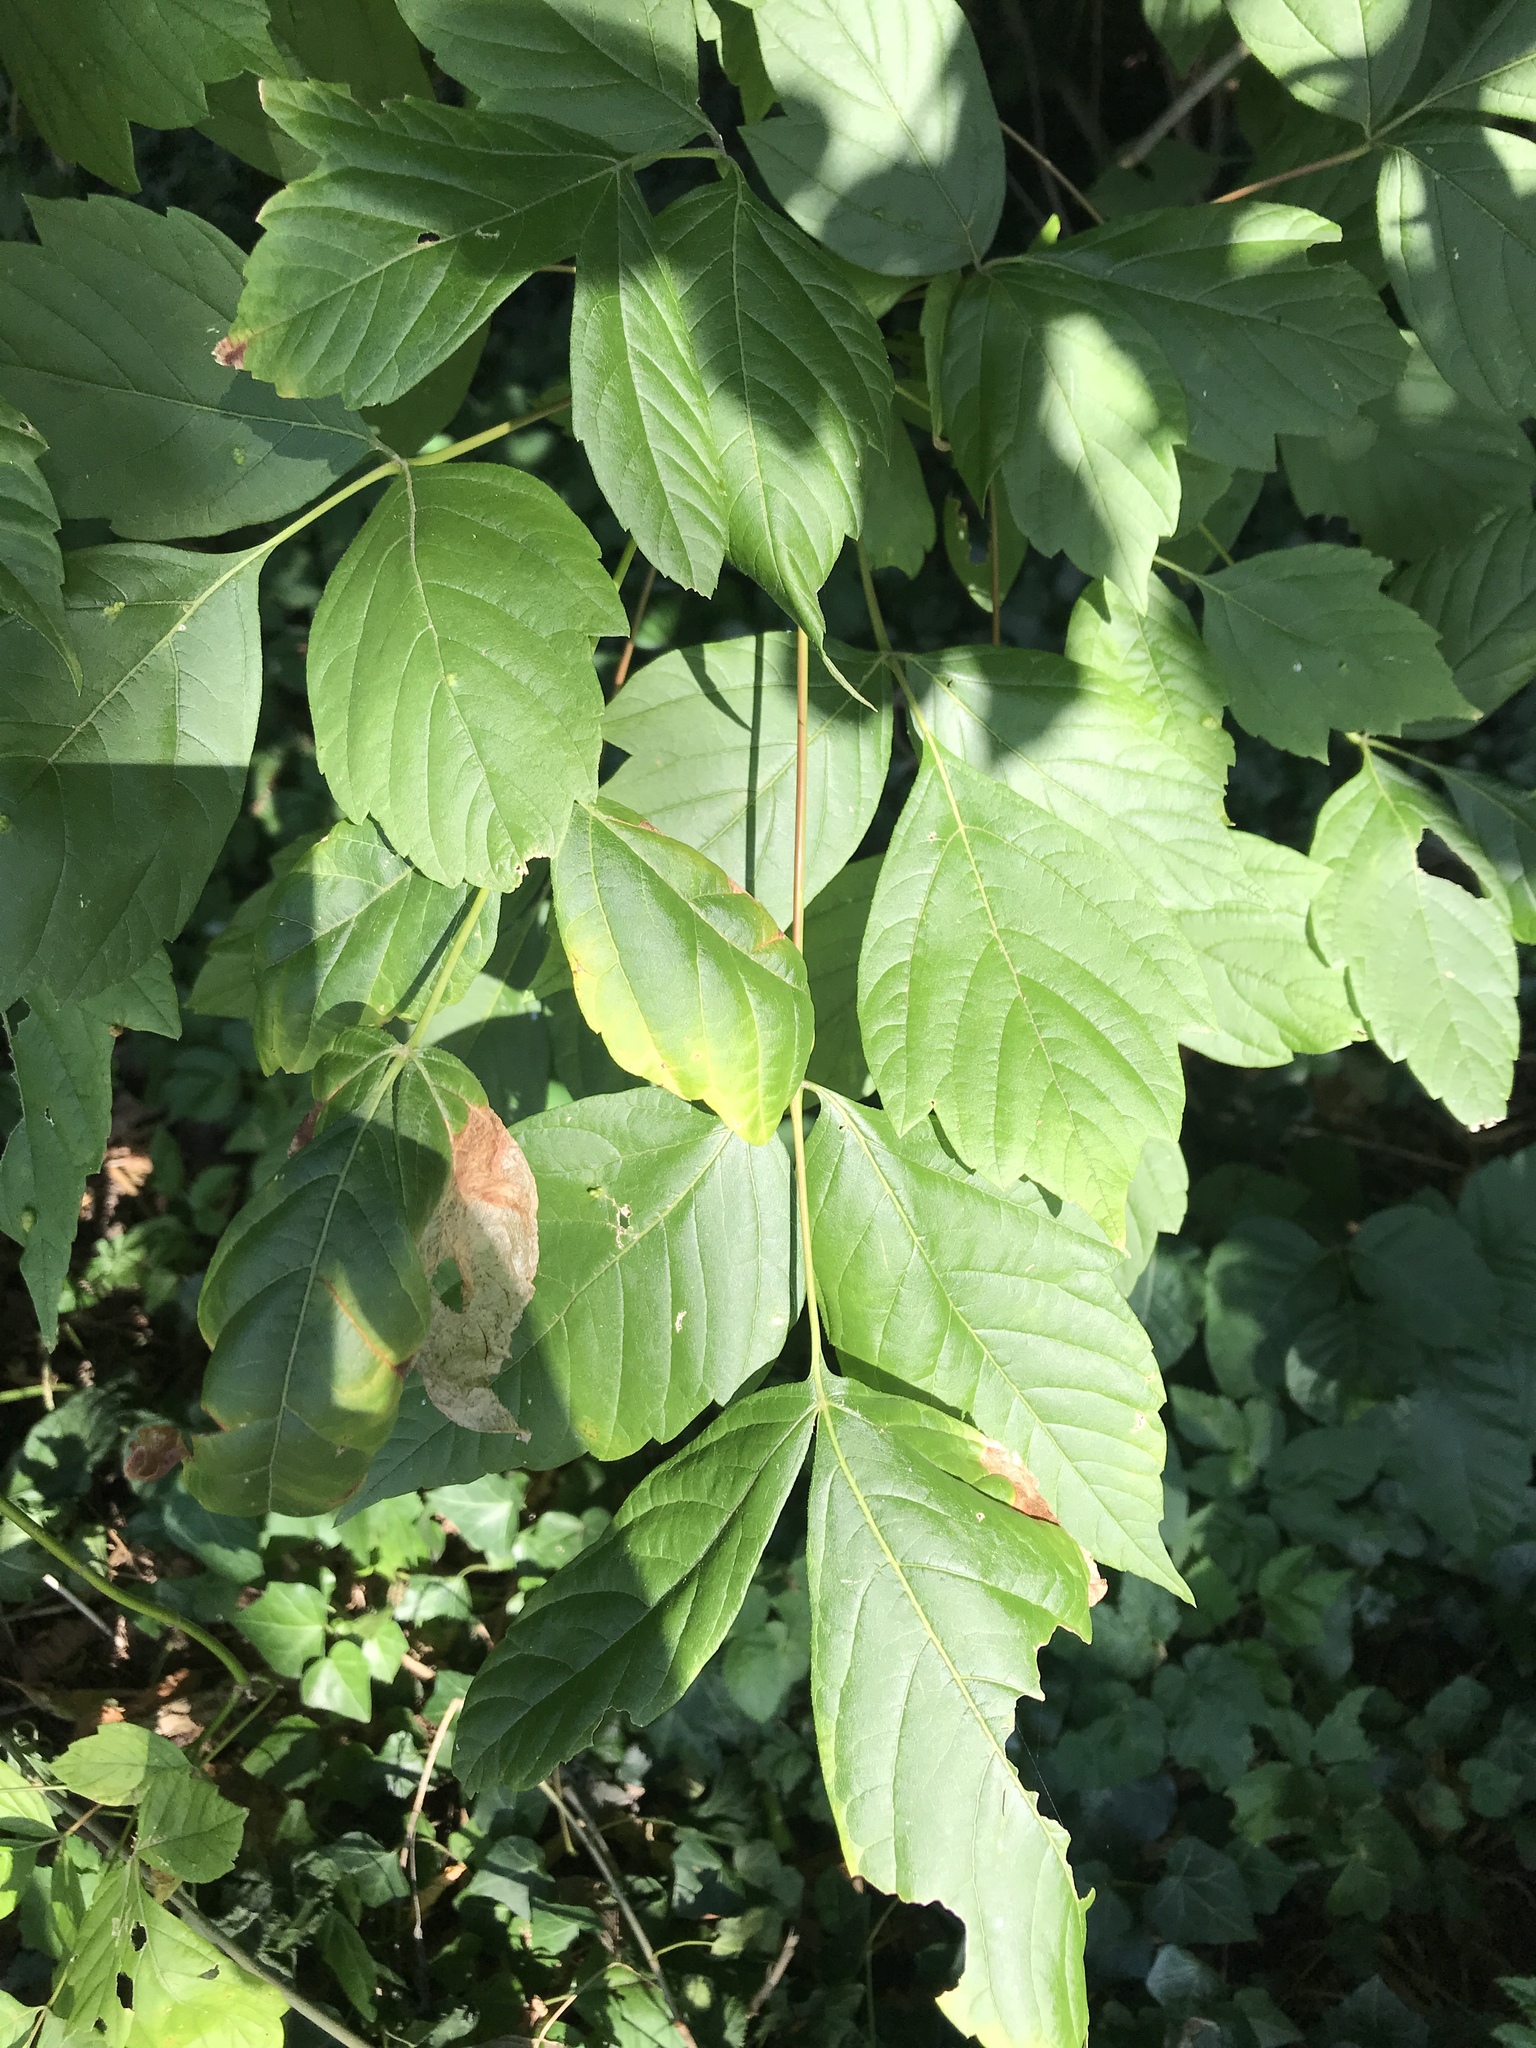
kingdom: Plantae
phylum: Tracheophyta
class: Magnoliopsida
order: Sapindales
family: Sapindaceae
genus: Acer
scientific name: Acer negundo
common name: Ashleaf maple
